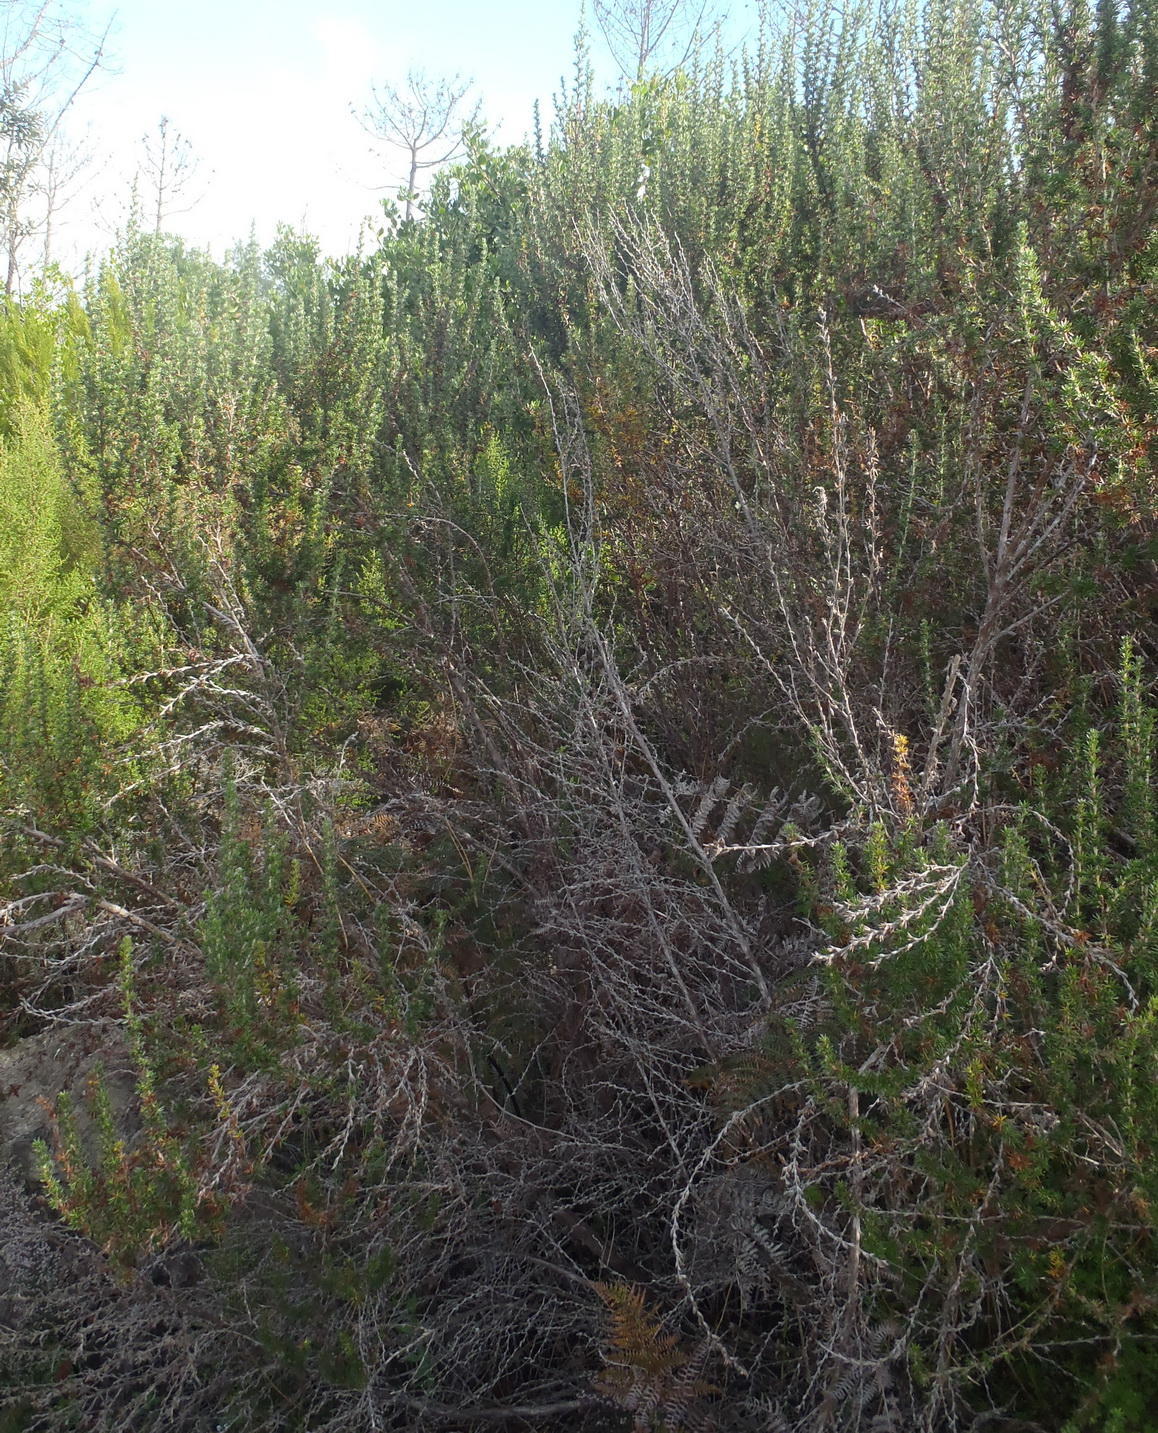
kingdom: Plantae
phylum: Tracheophyta
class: Magnoliopsida
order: Rosales
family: Rosaceae
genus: Cliffortia
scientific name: Cliffortia stricta
